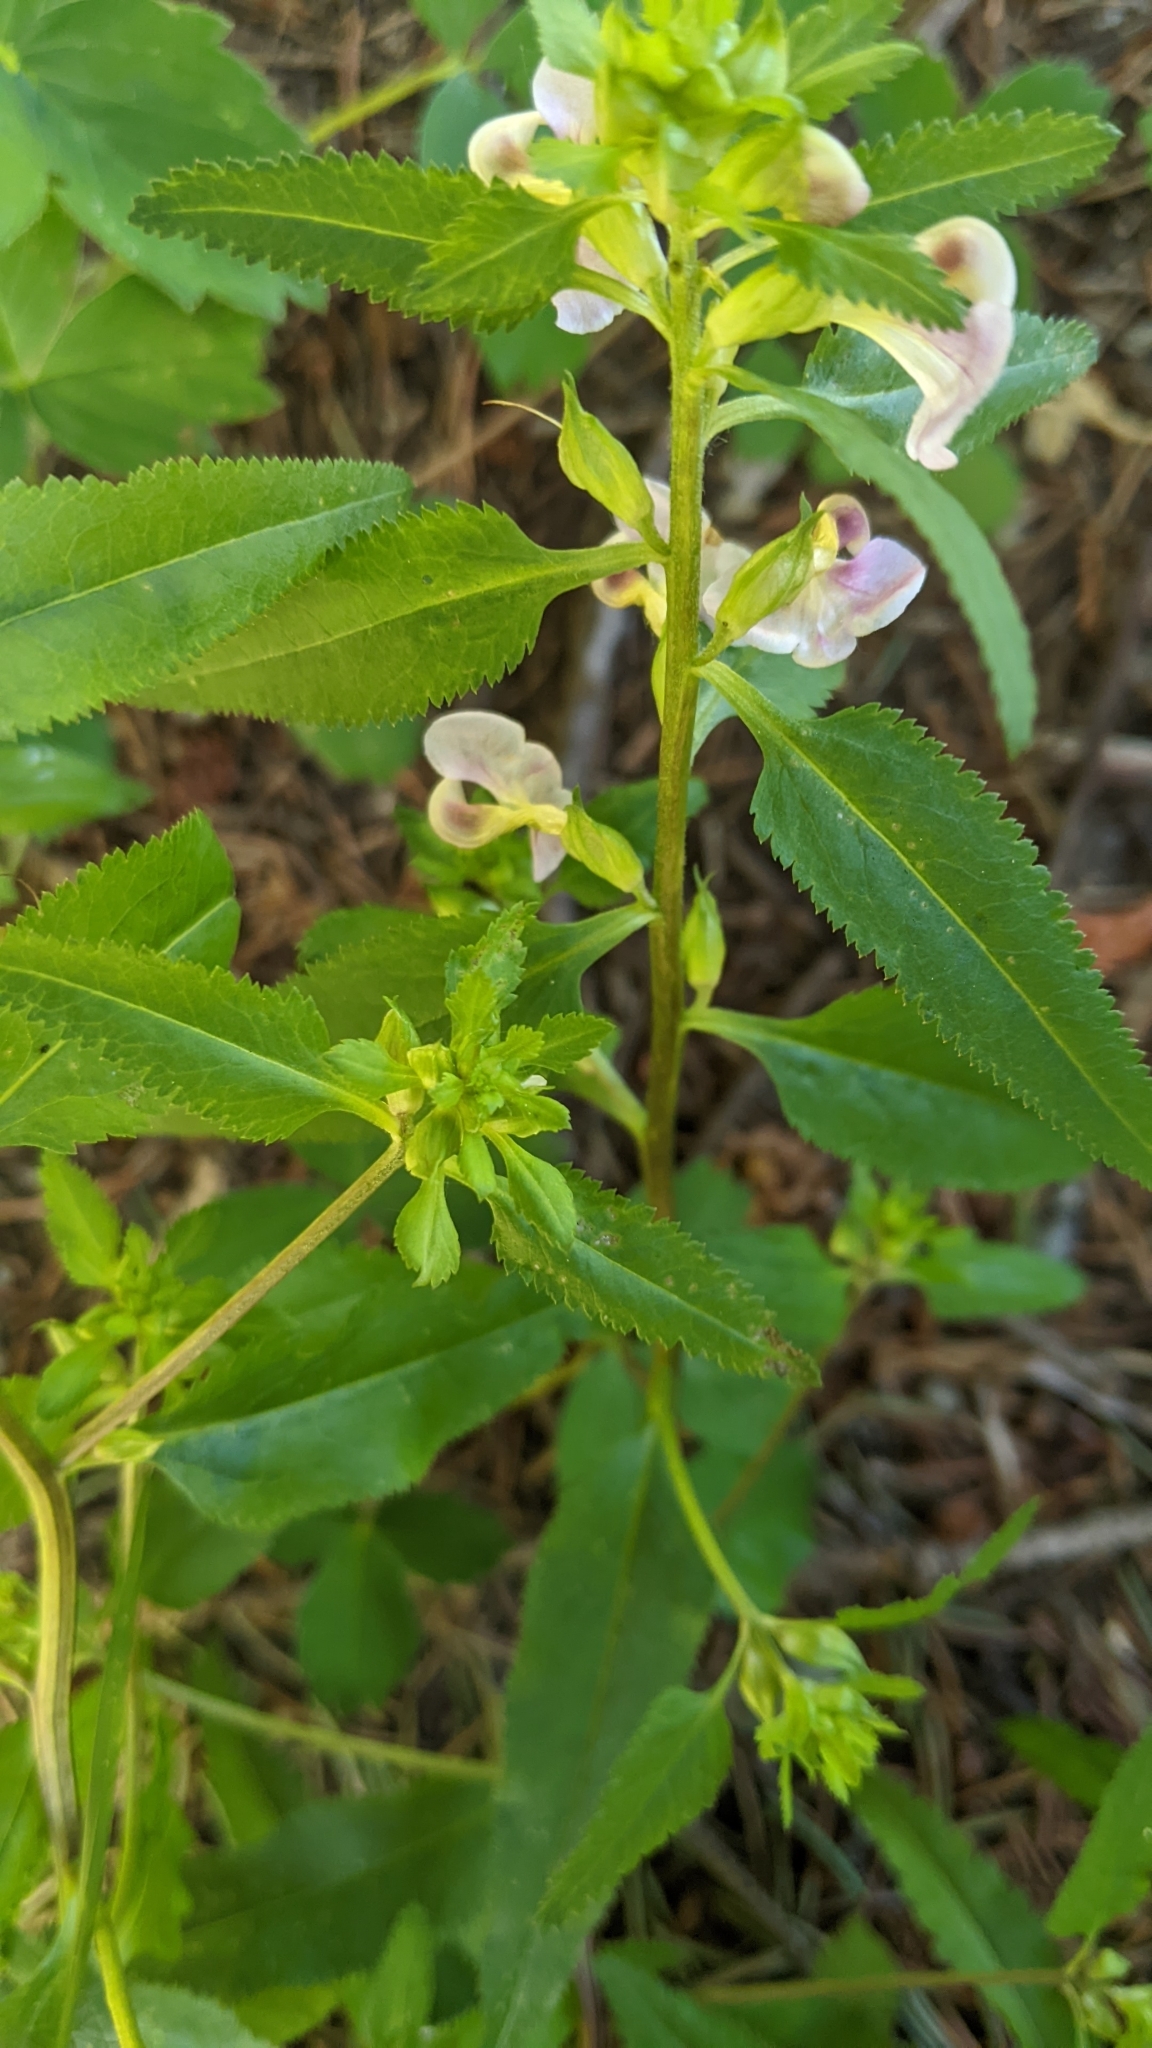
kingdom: Plantae
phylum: Tracheophyta
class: Magnoliopsida
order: Lamiales
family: Orobanchaceae
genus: Pedicularis
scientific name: Pedicularis racemosa
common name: Leafy lousewort
